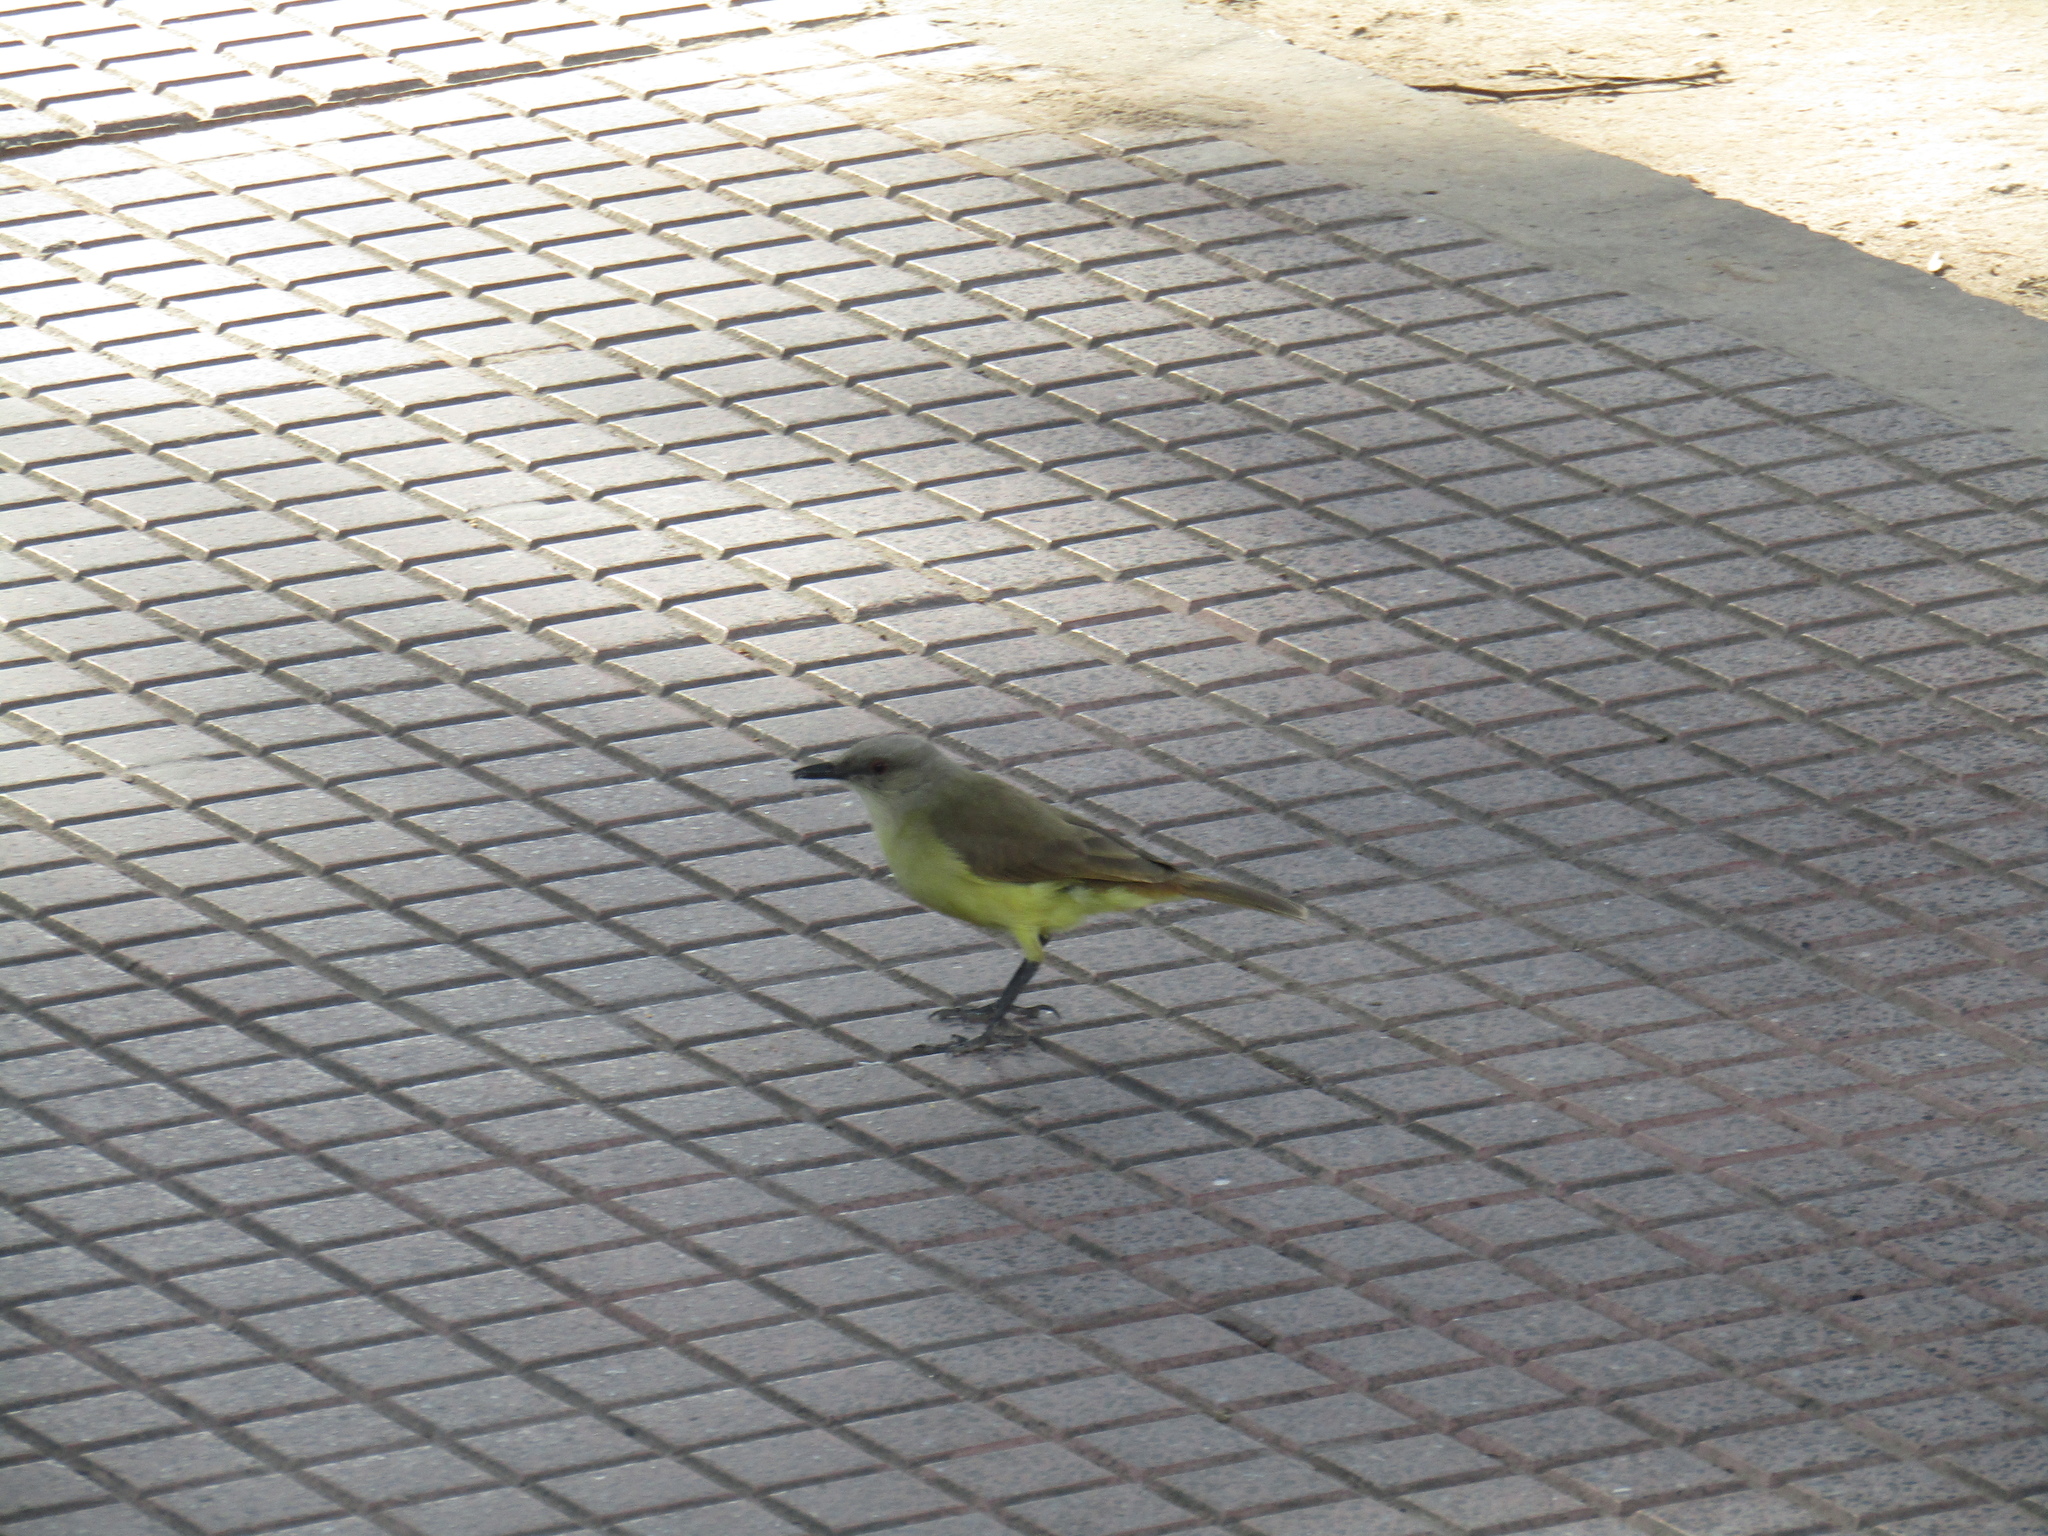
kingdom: Animalia
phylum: Chordata
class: Aves
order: Passeriformes
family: Tyrannidae
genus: Machetornis
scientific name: Machetornis rixosa
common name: Cattle tyrant
